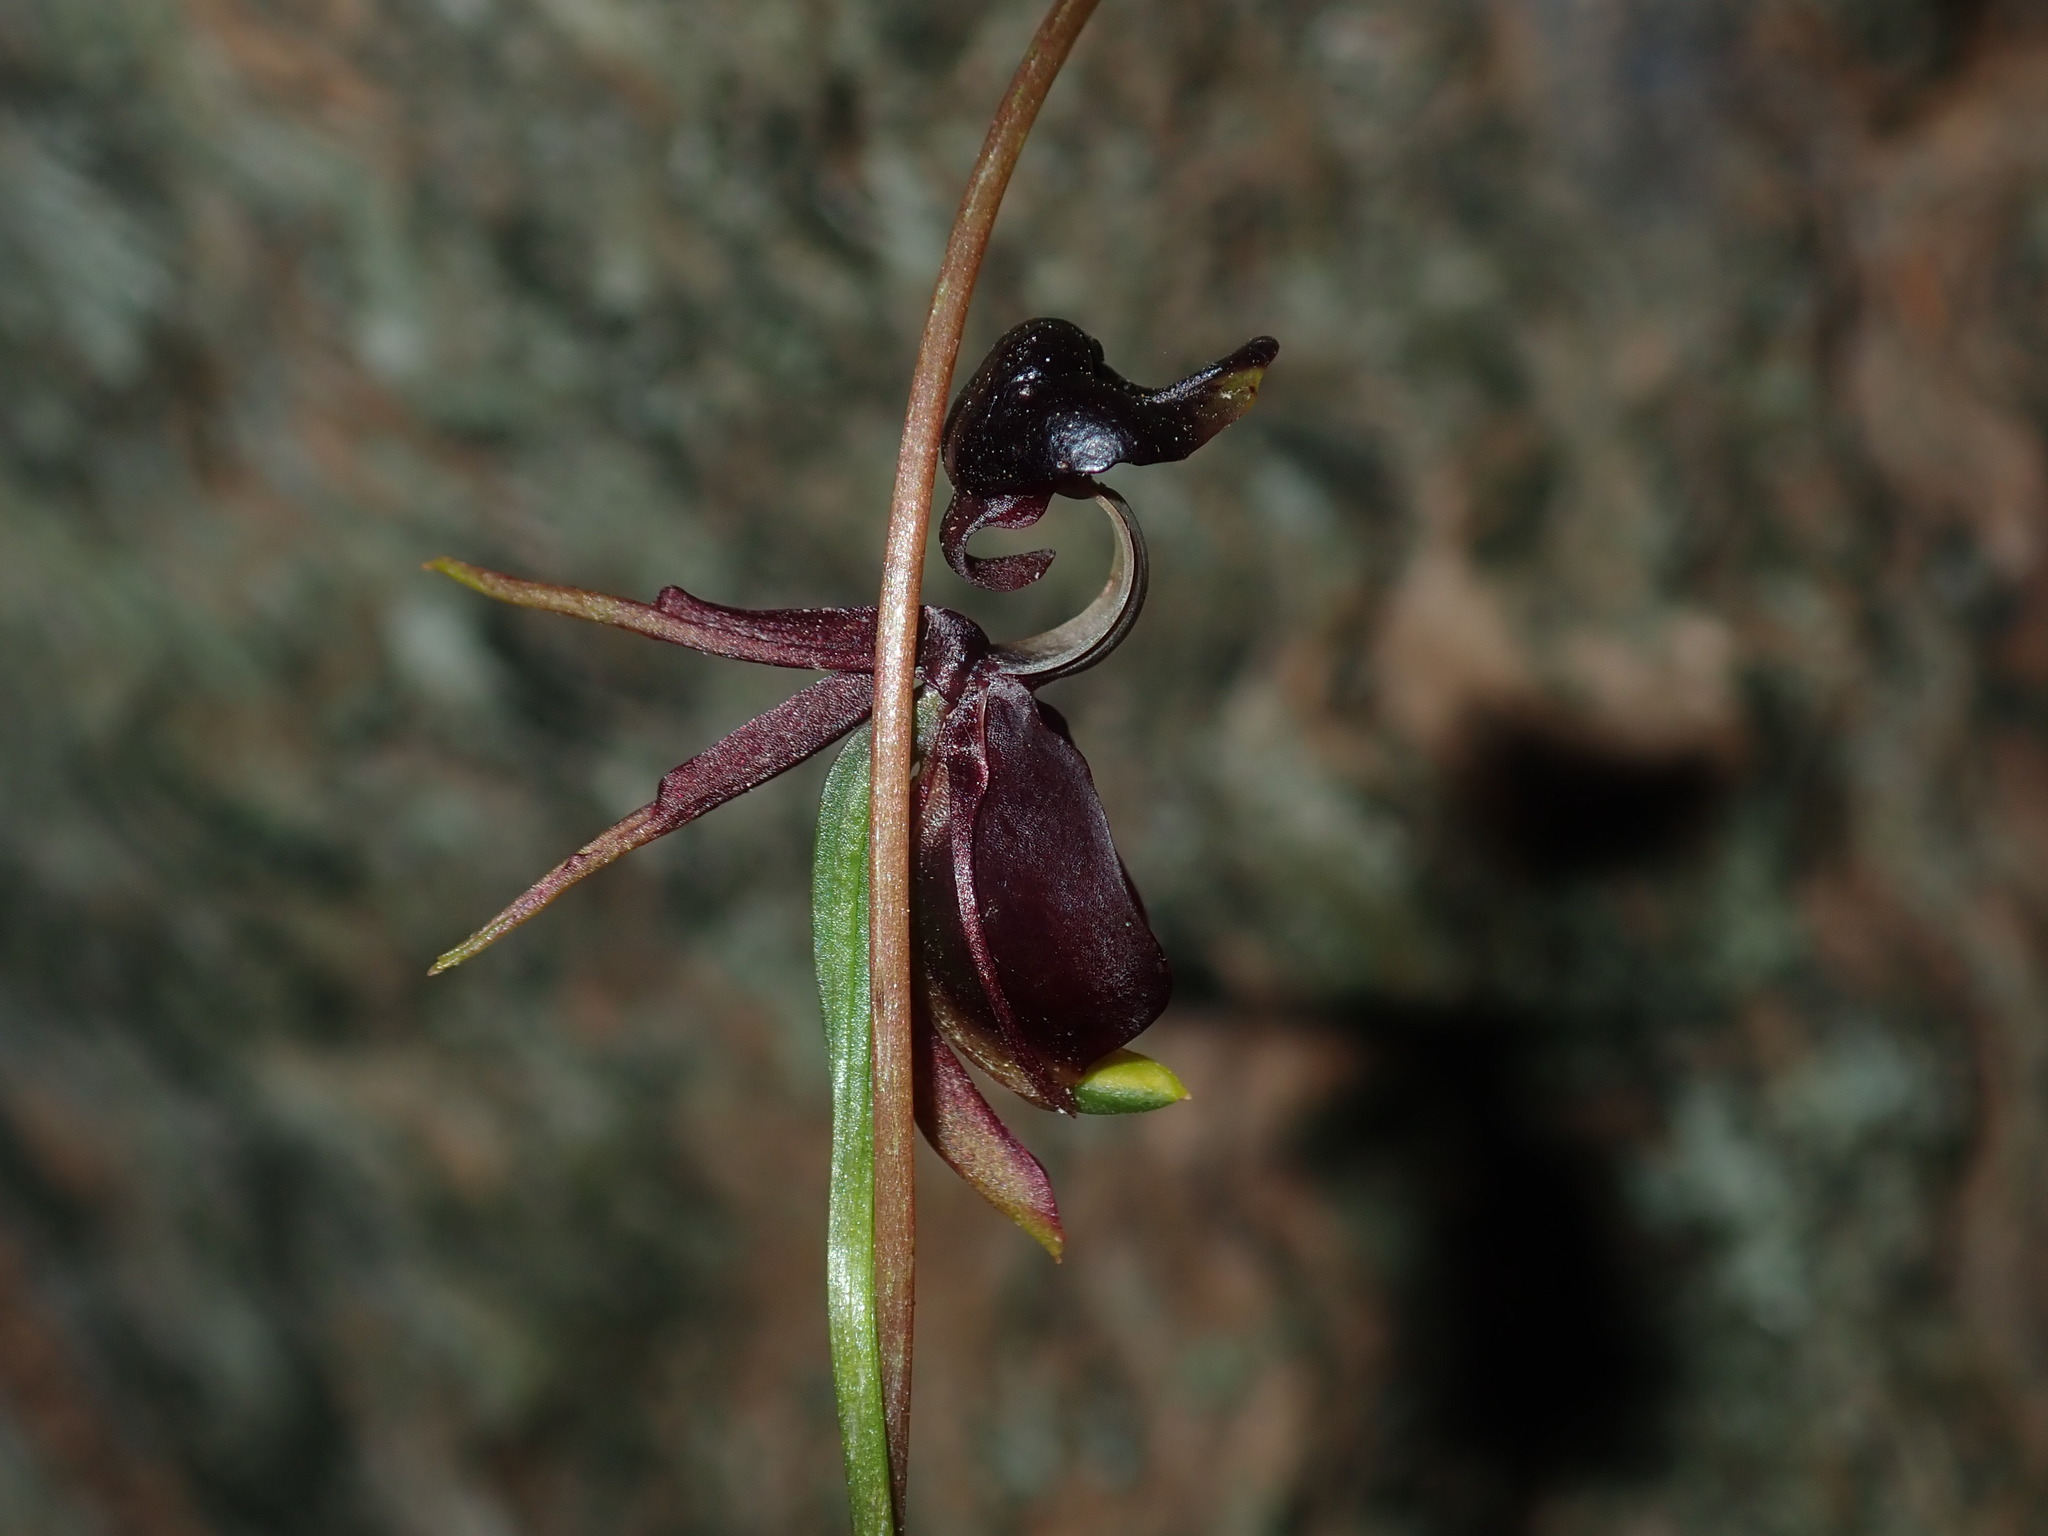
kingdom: Plantae
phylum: Tracheophyta
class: Liliopsida
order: Asparagales
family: Orchidaceae
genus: Caleana
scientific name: Caleana major
